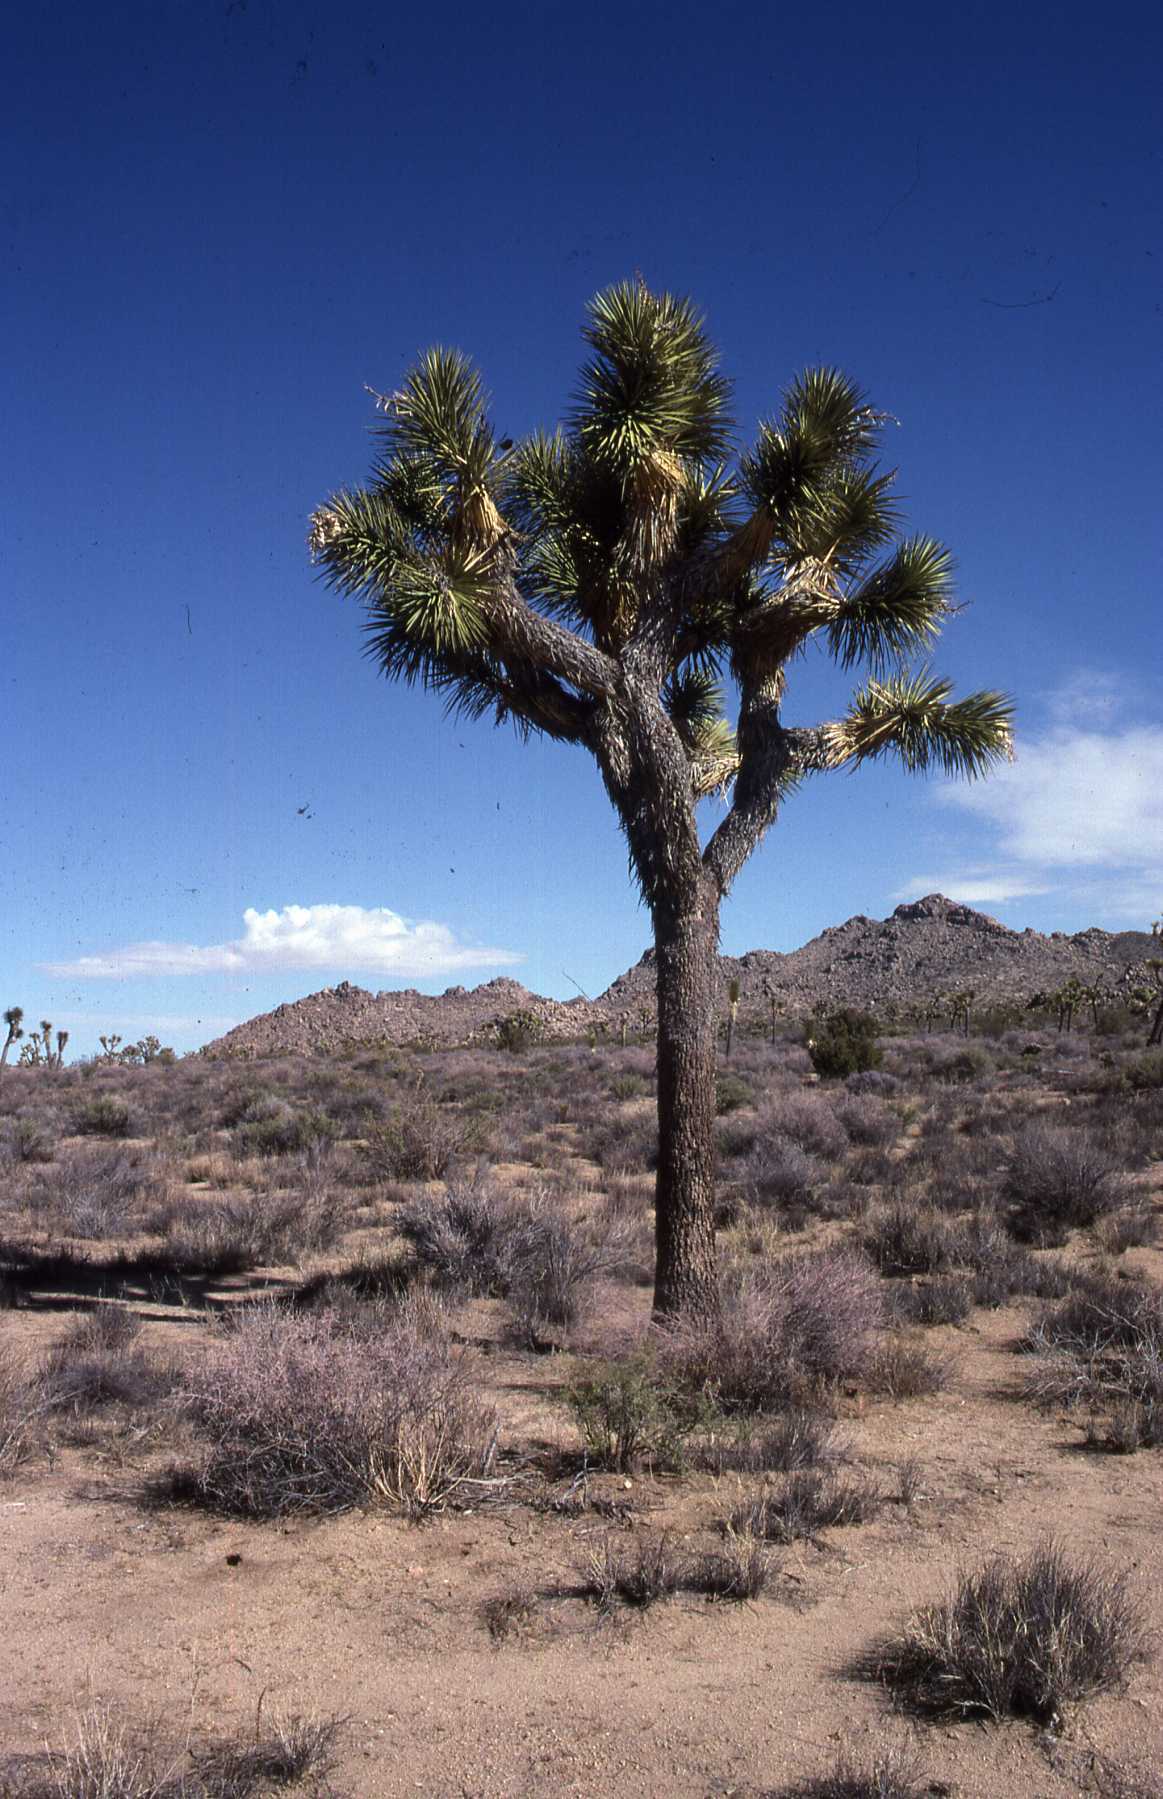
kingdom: Plantae
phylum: Tracheophyta
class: Liliopsida
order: Asparagales
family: Asparagaceae
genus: Yucca
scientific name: Yucca brevifolia
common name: Joshua tree
